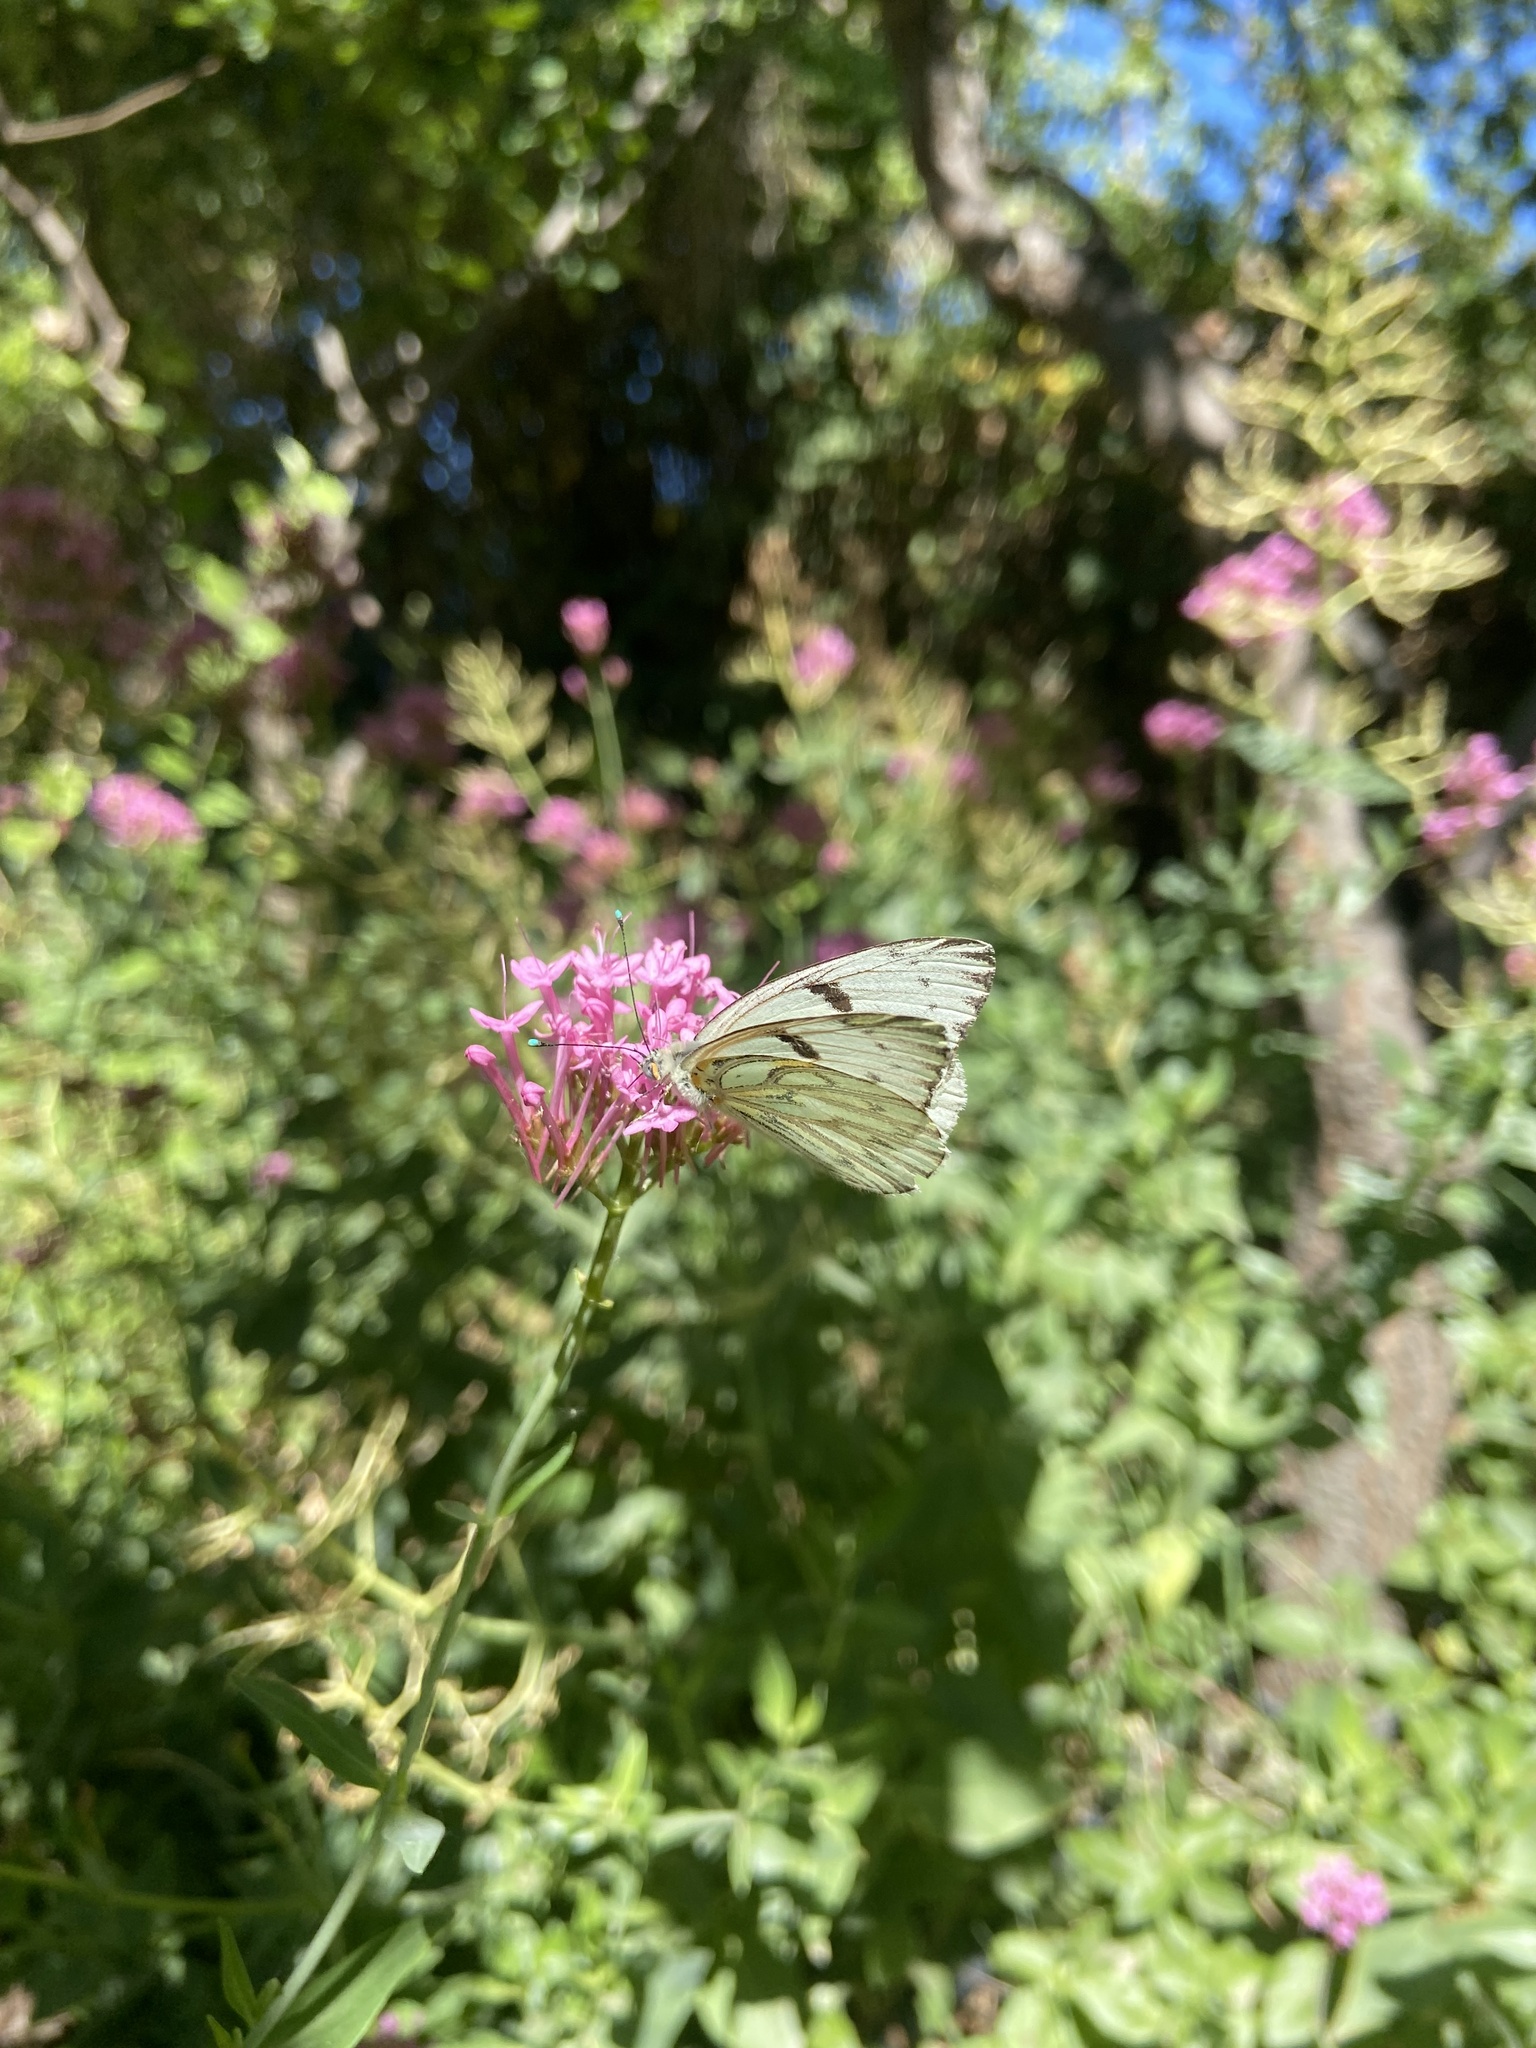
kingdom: Animalia
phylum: Arthropoda
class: Insecta
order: Lepidoptera
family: Pieridae
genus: Tatochila
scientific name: Tatochila autodice
